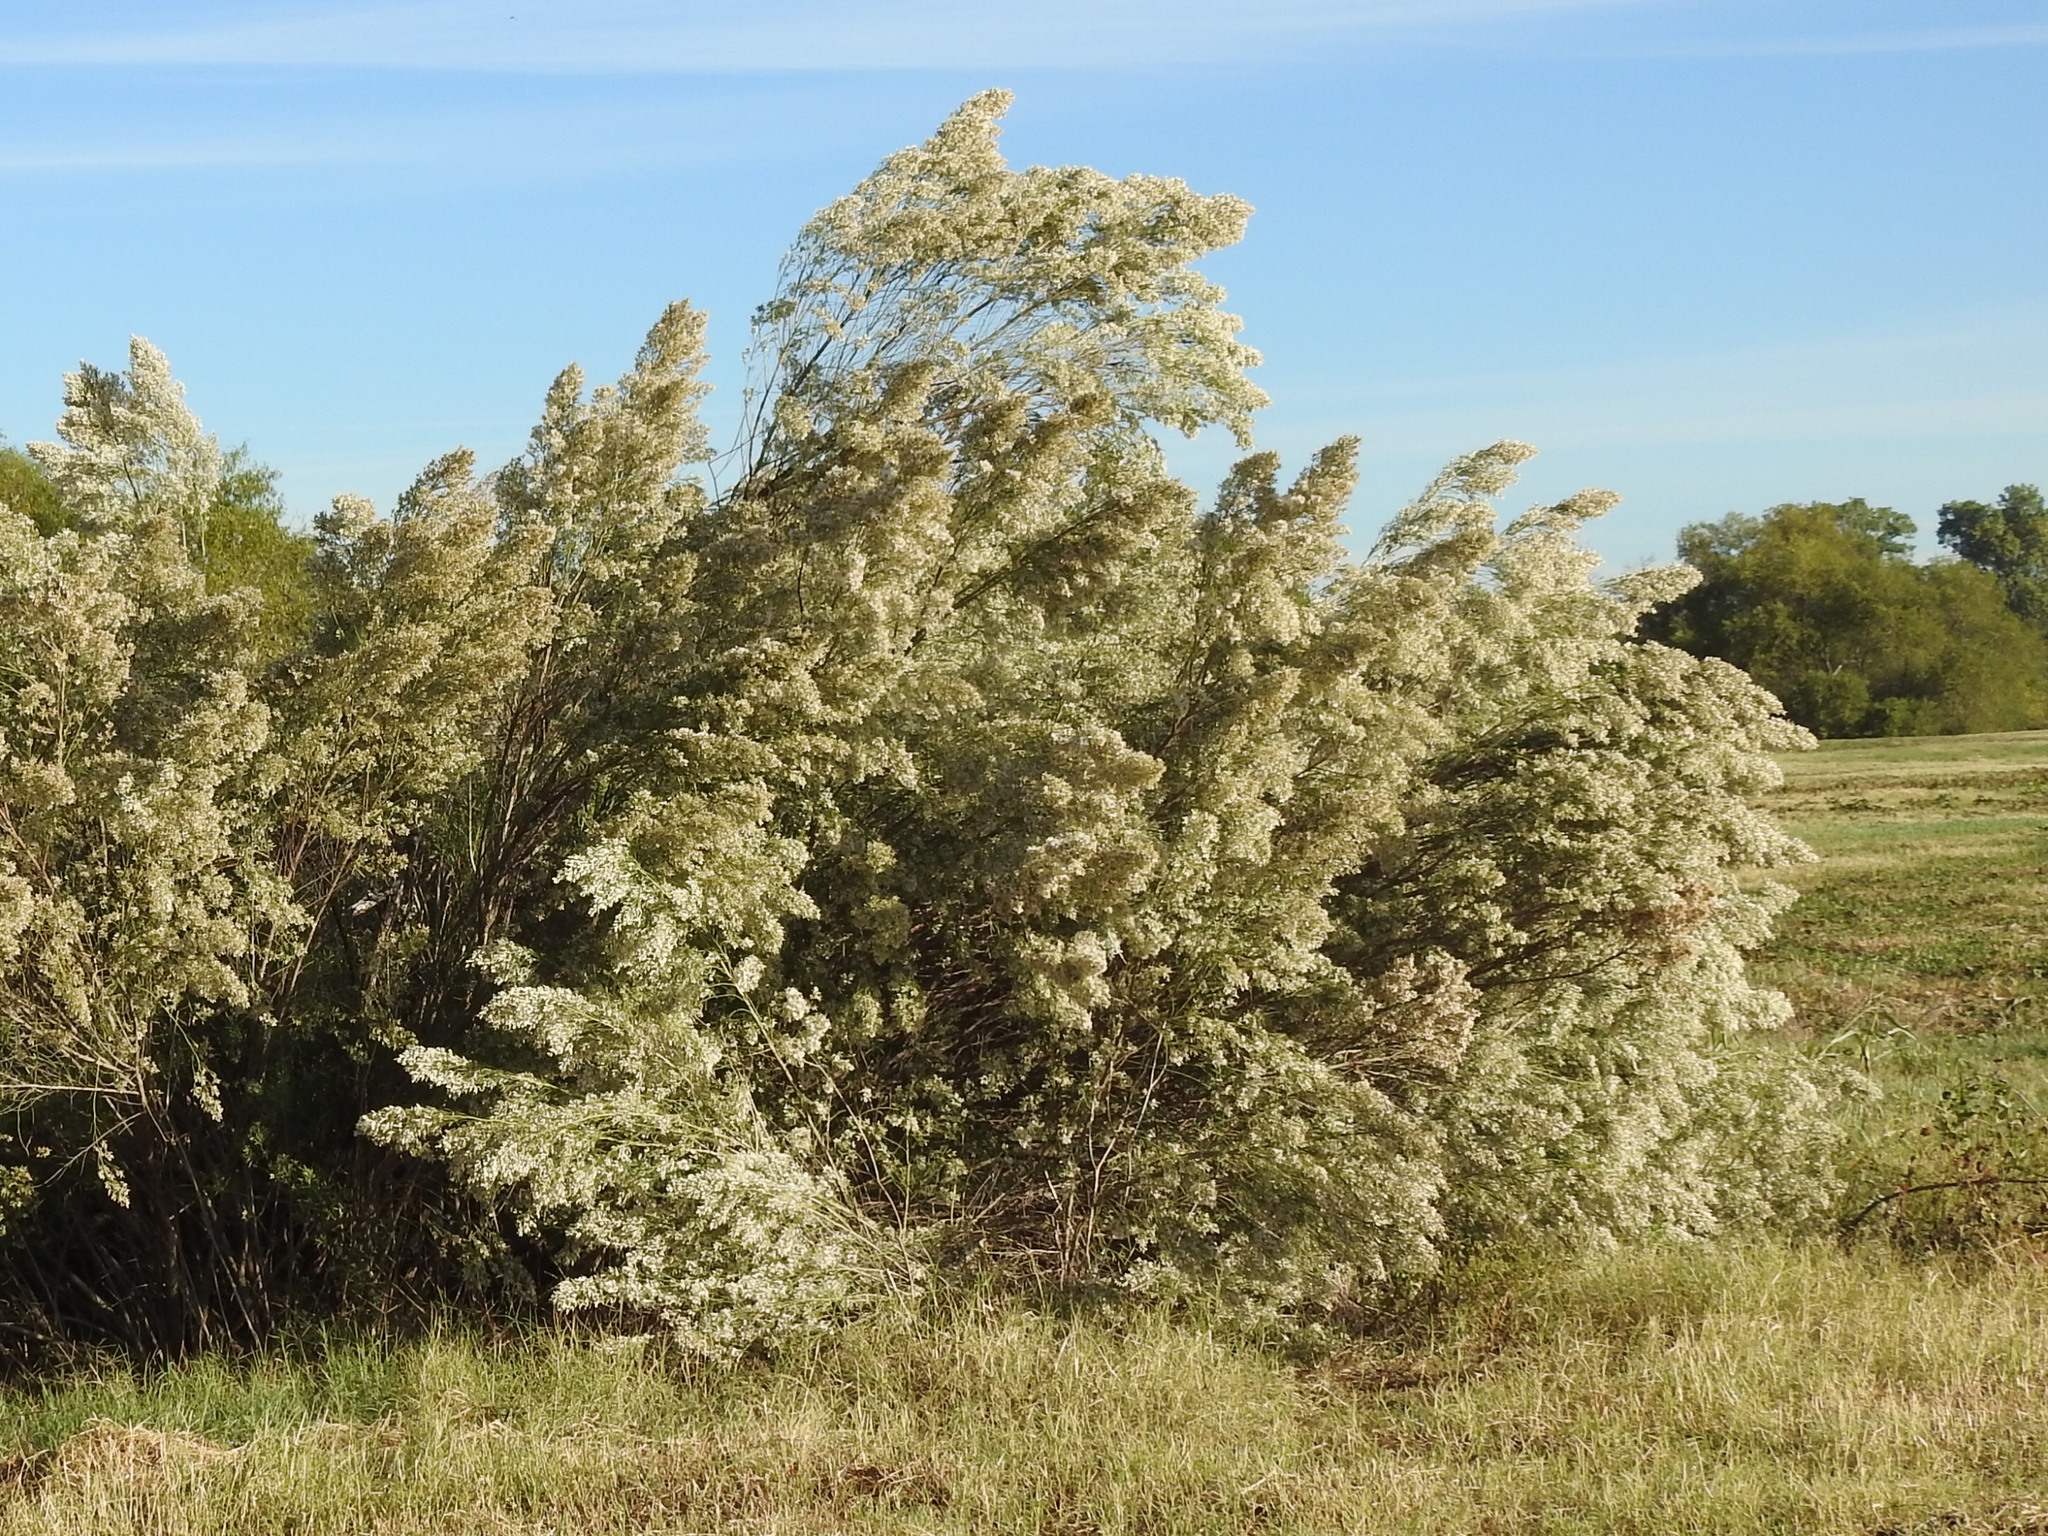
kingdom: Plantae
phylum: Tracheophyta
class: Magnoliopsida
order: Asterales
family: Asteraceae
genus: Baccharis
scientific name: Baccharis neglecta
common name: Roosevelt-weed
